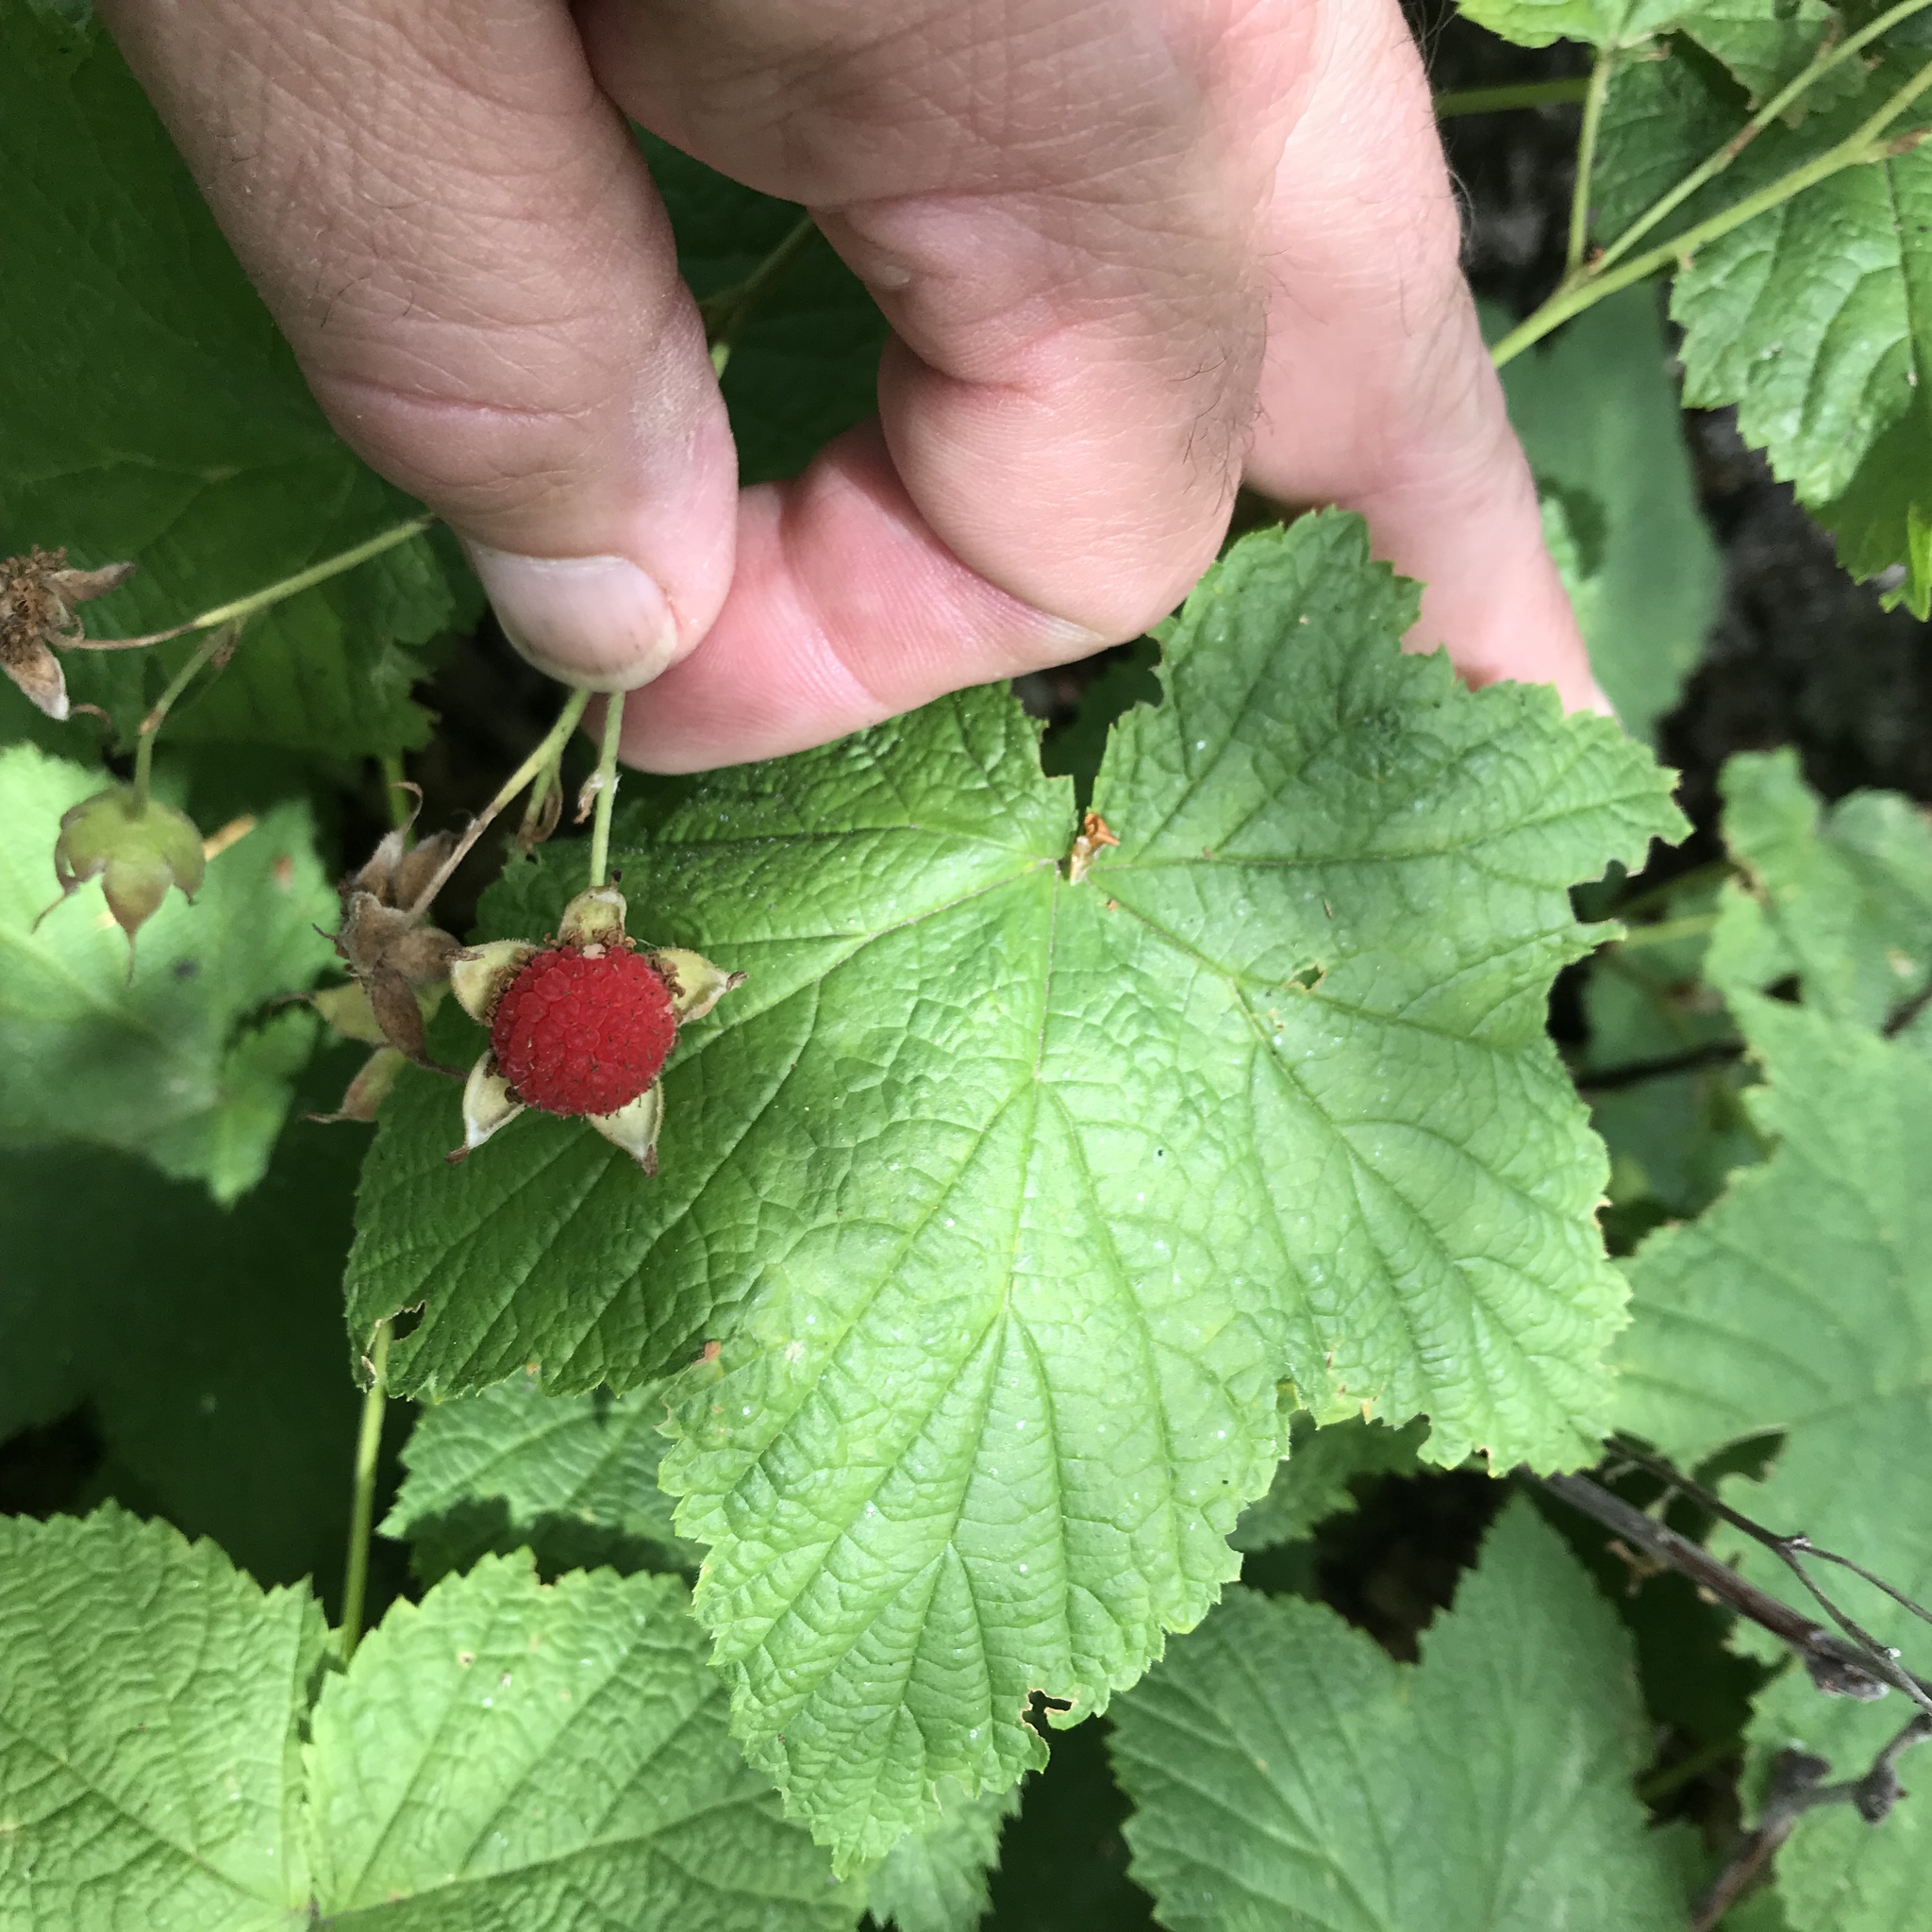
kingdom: Plantae
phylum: Tracheophyta
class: Magnoliopsida
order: Rosales
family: Rosaceae
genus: Rubus
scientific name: Rubus parviflorus
